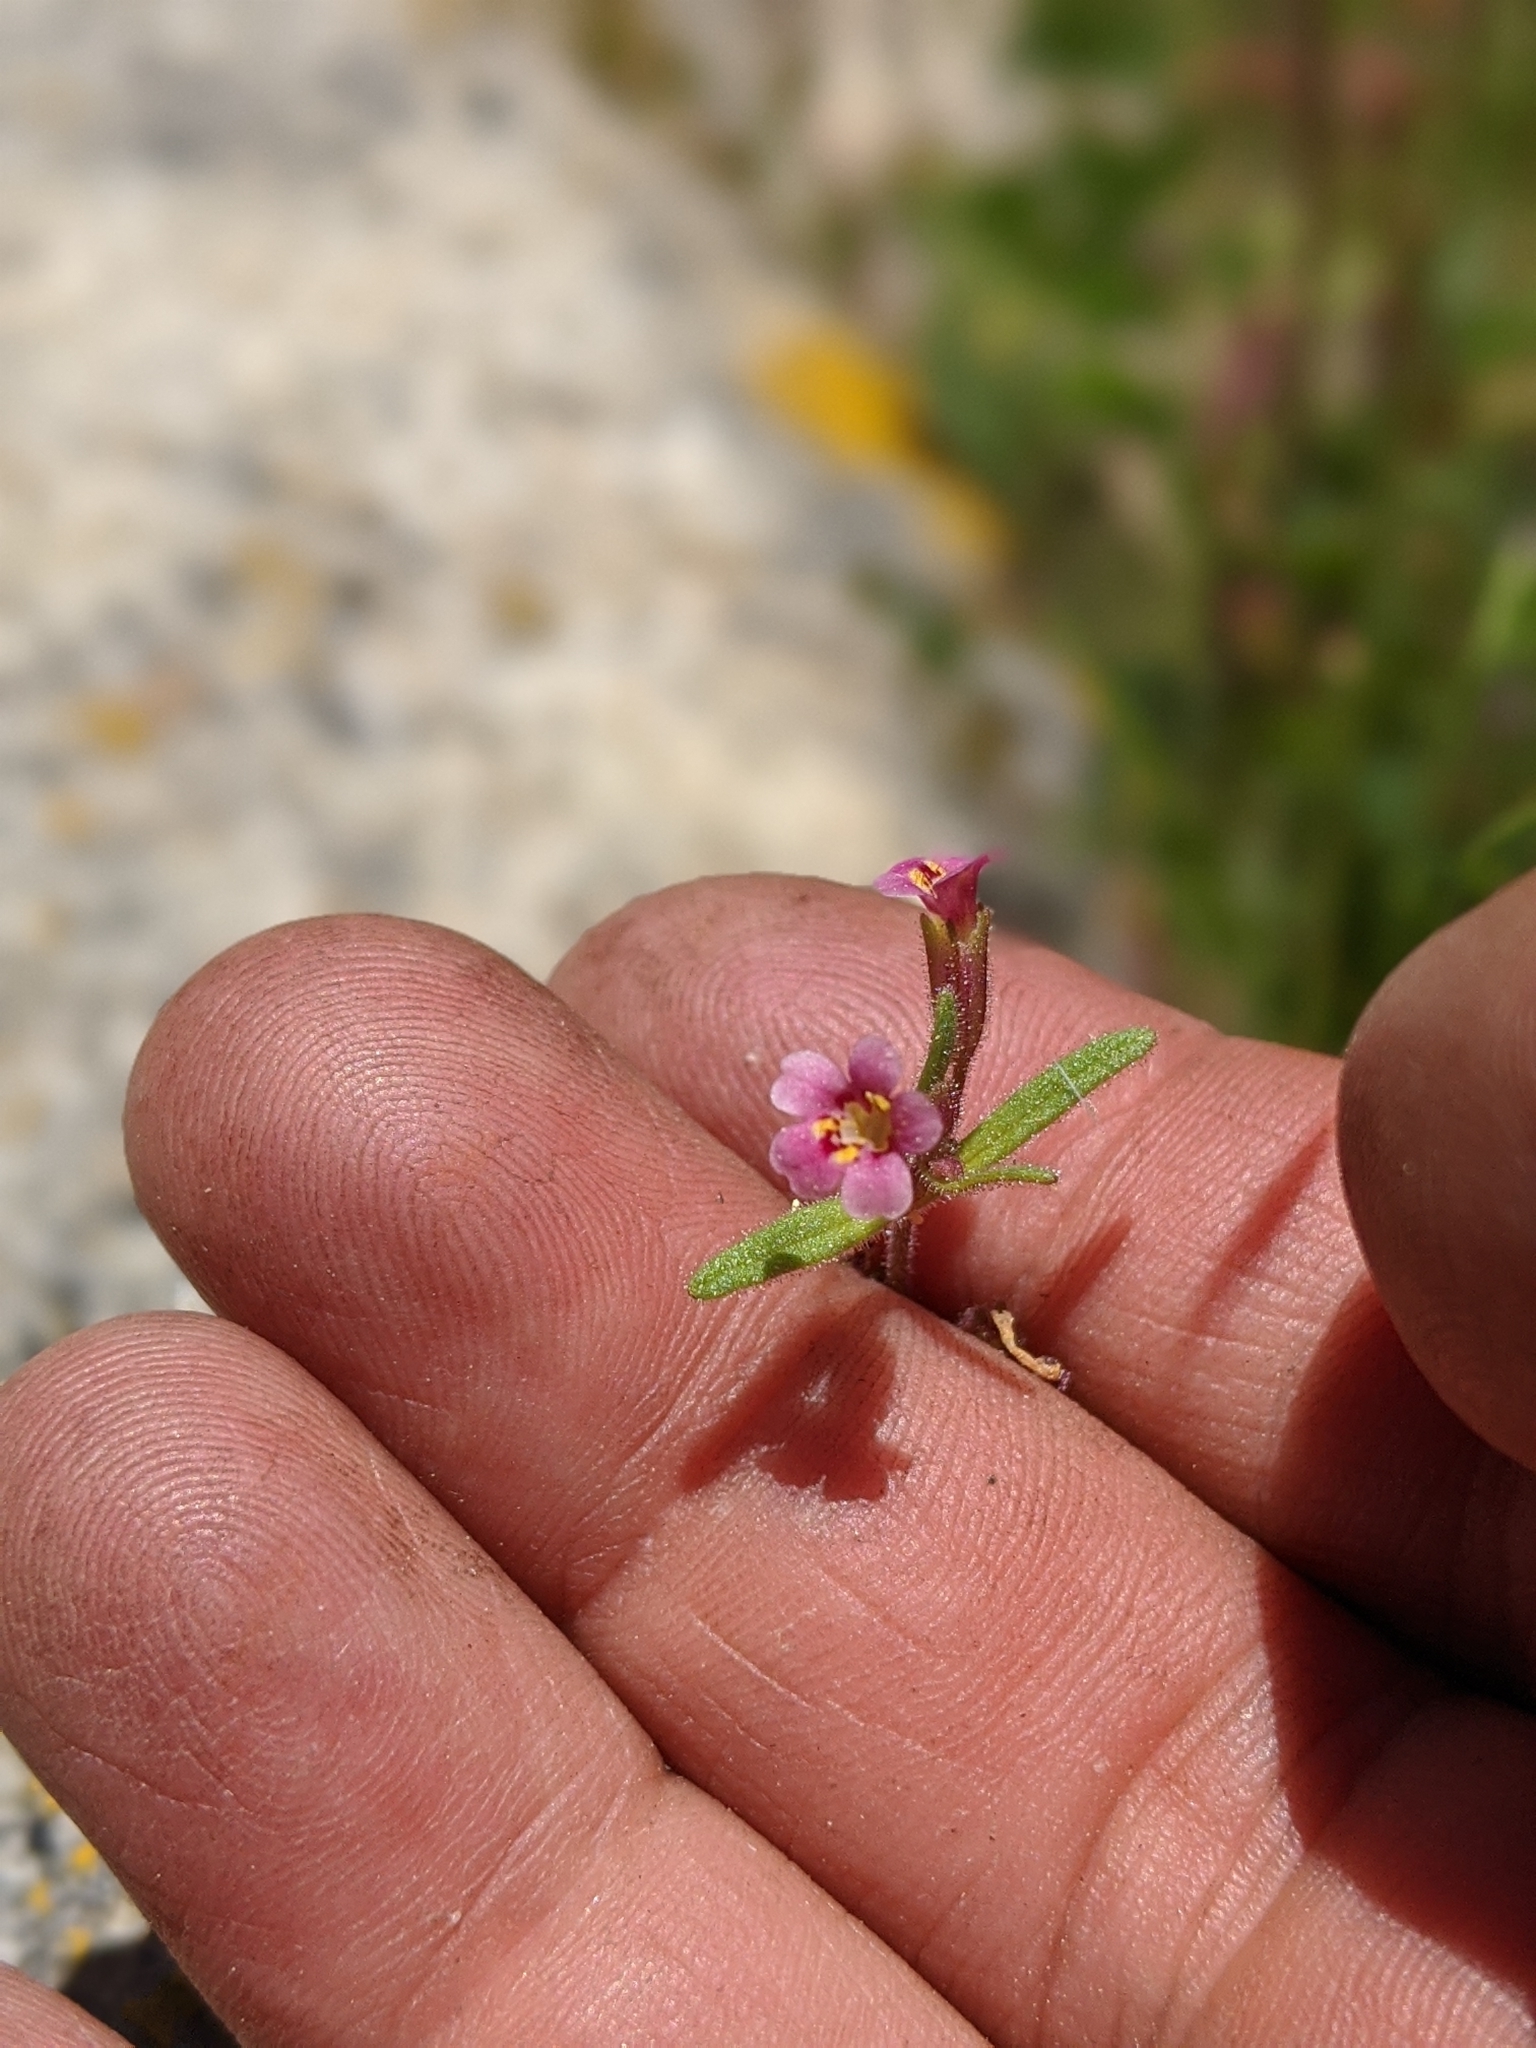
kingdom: Plantae
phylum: Tracheophyta
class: Magnoliopsida
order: Lamiales
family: Phrymaceae
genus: Erythranthe
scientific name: Erythranthe breweri
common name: Brewer's monkeyflower
